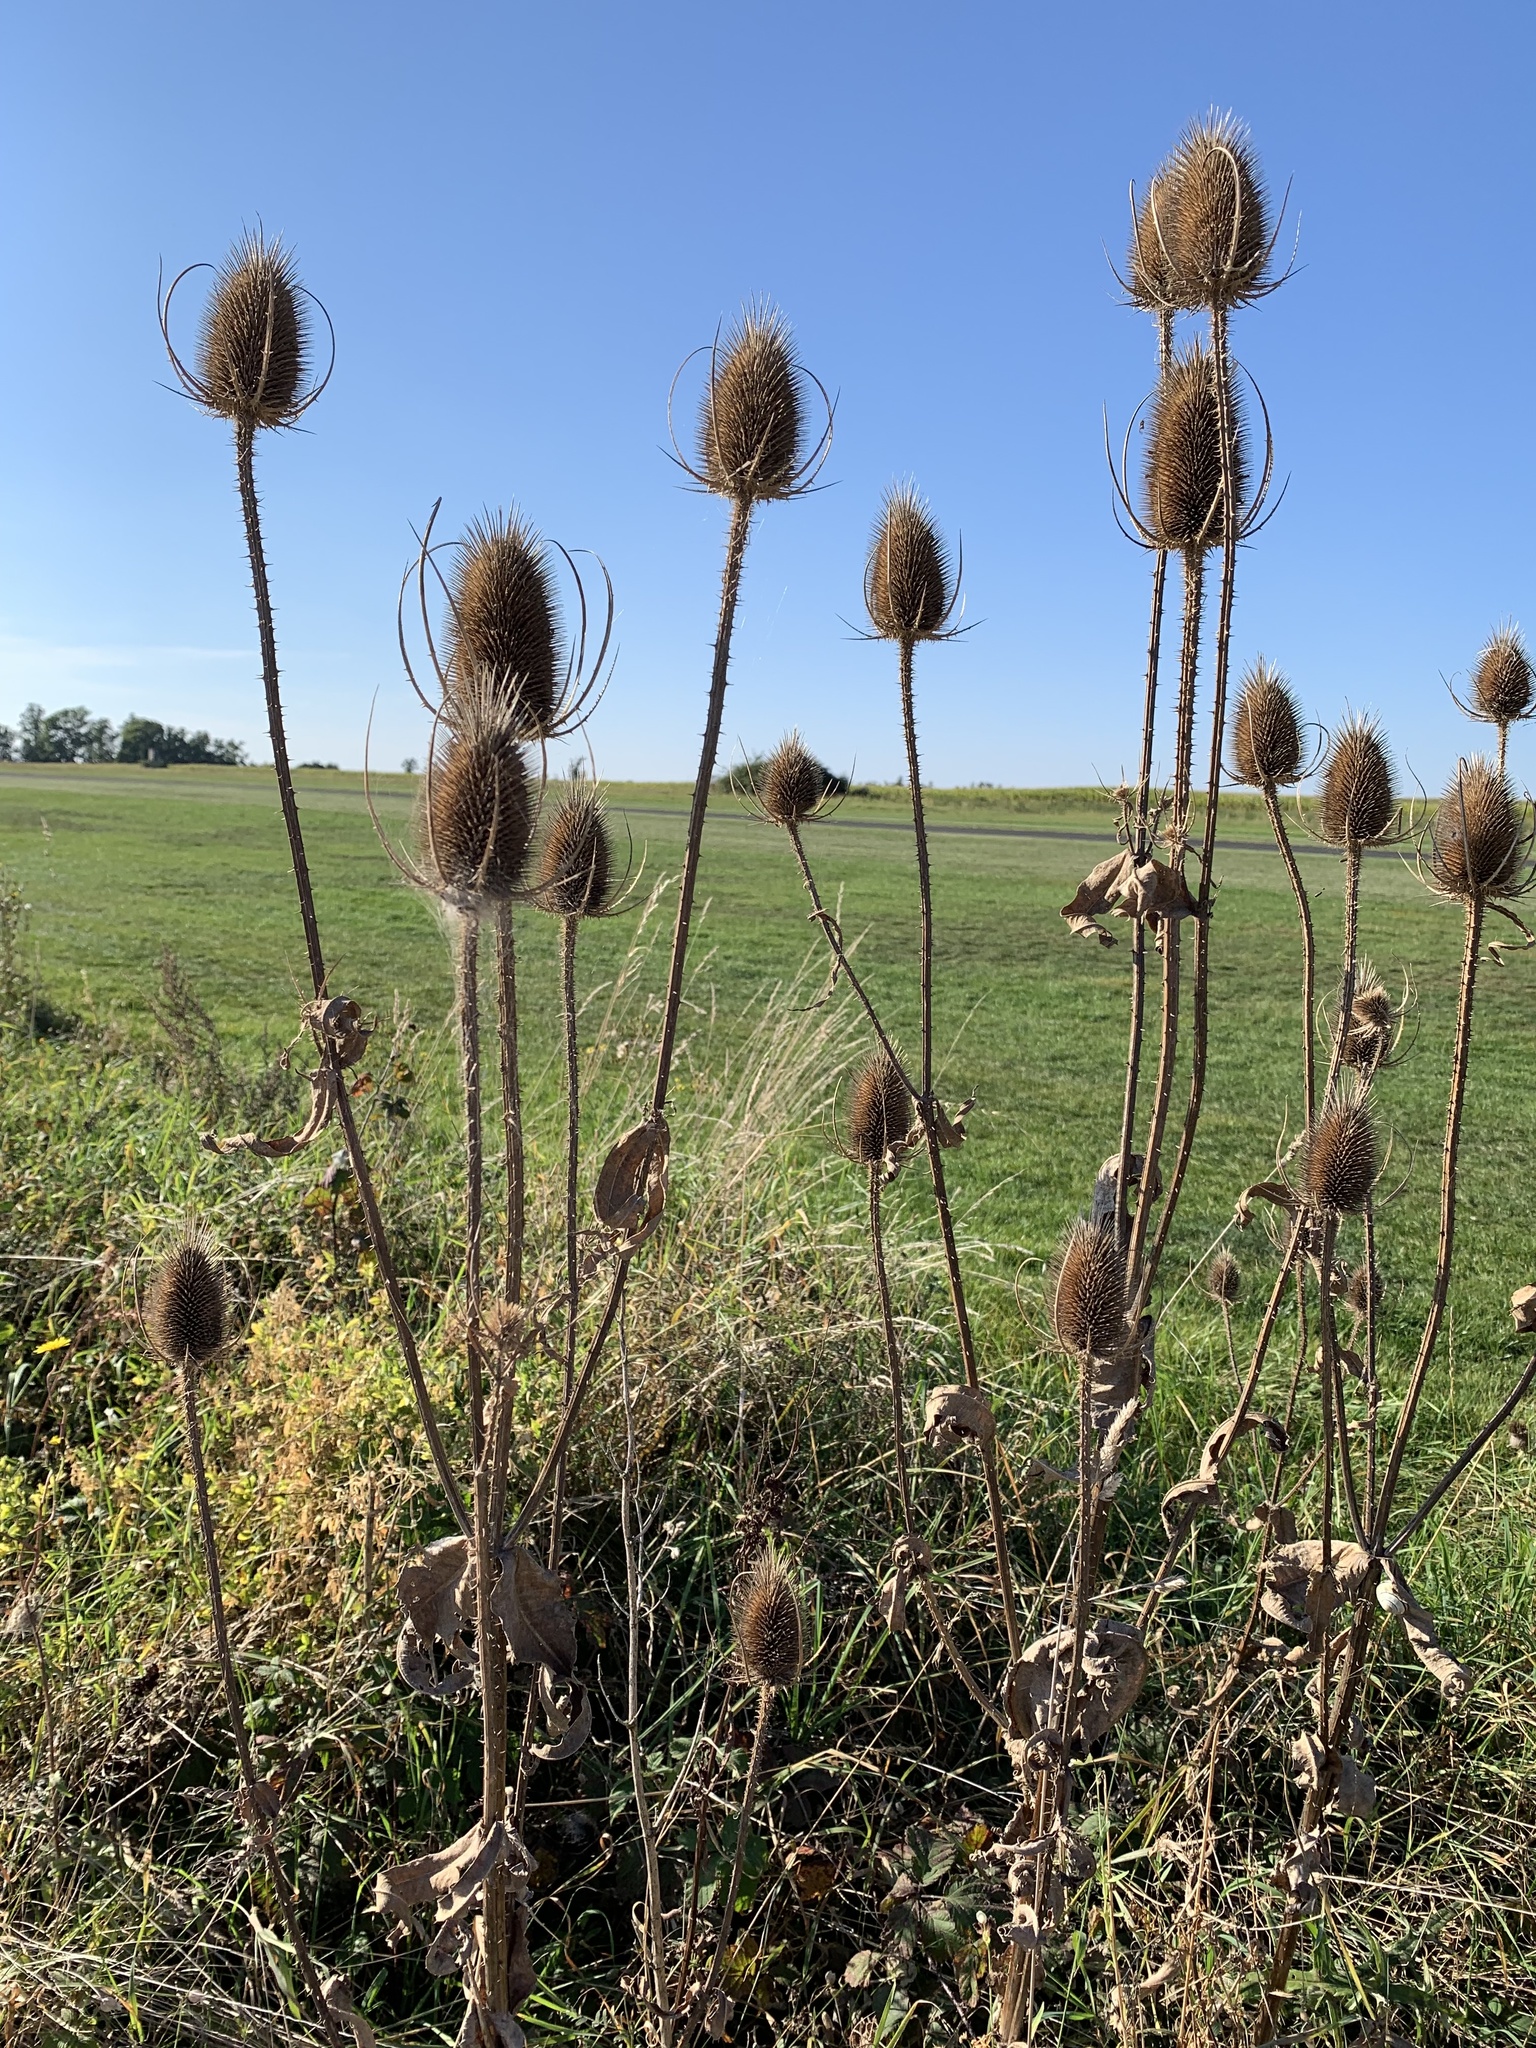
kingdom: Plantae
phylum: Tracheophyta
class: Magnoliopsida
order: Dipsacales
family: Caprifoliaceae
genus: Dipsacus
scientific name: Dipsacus fullonum
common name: Teasel
